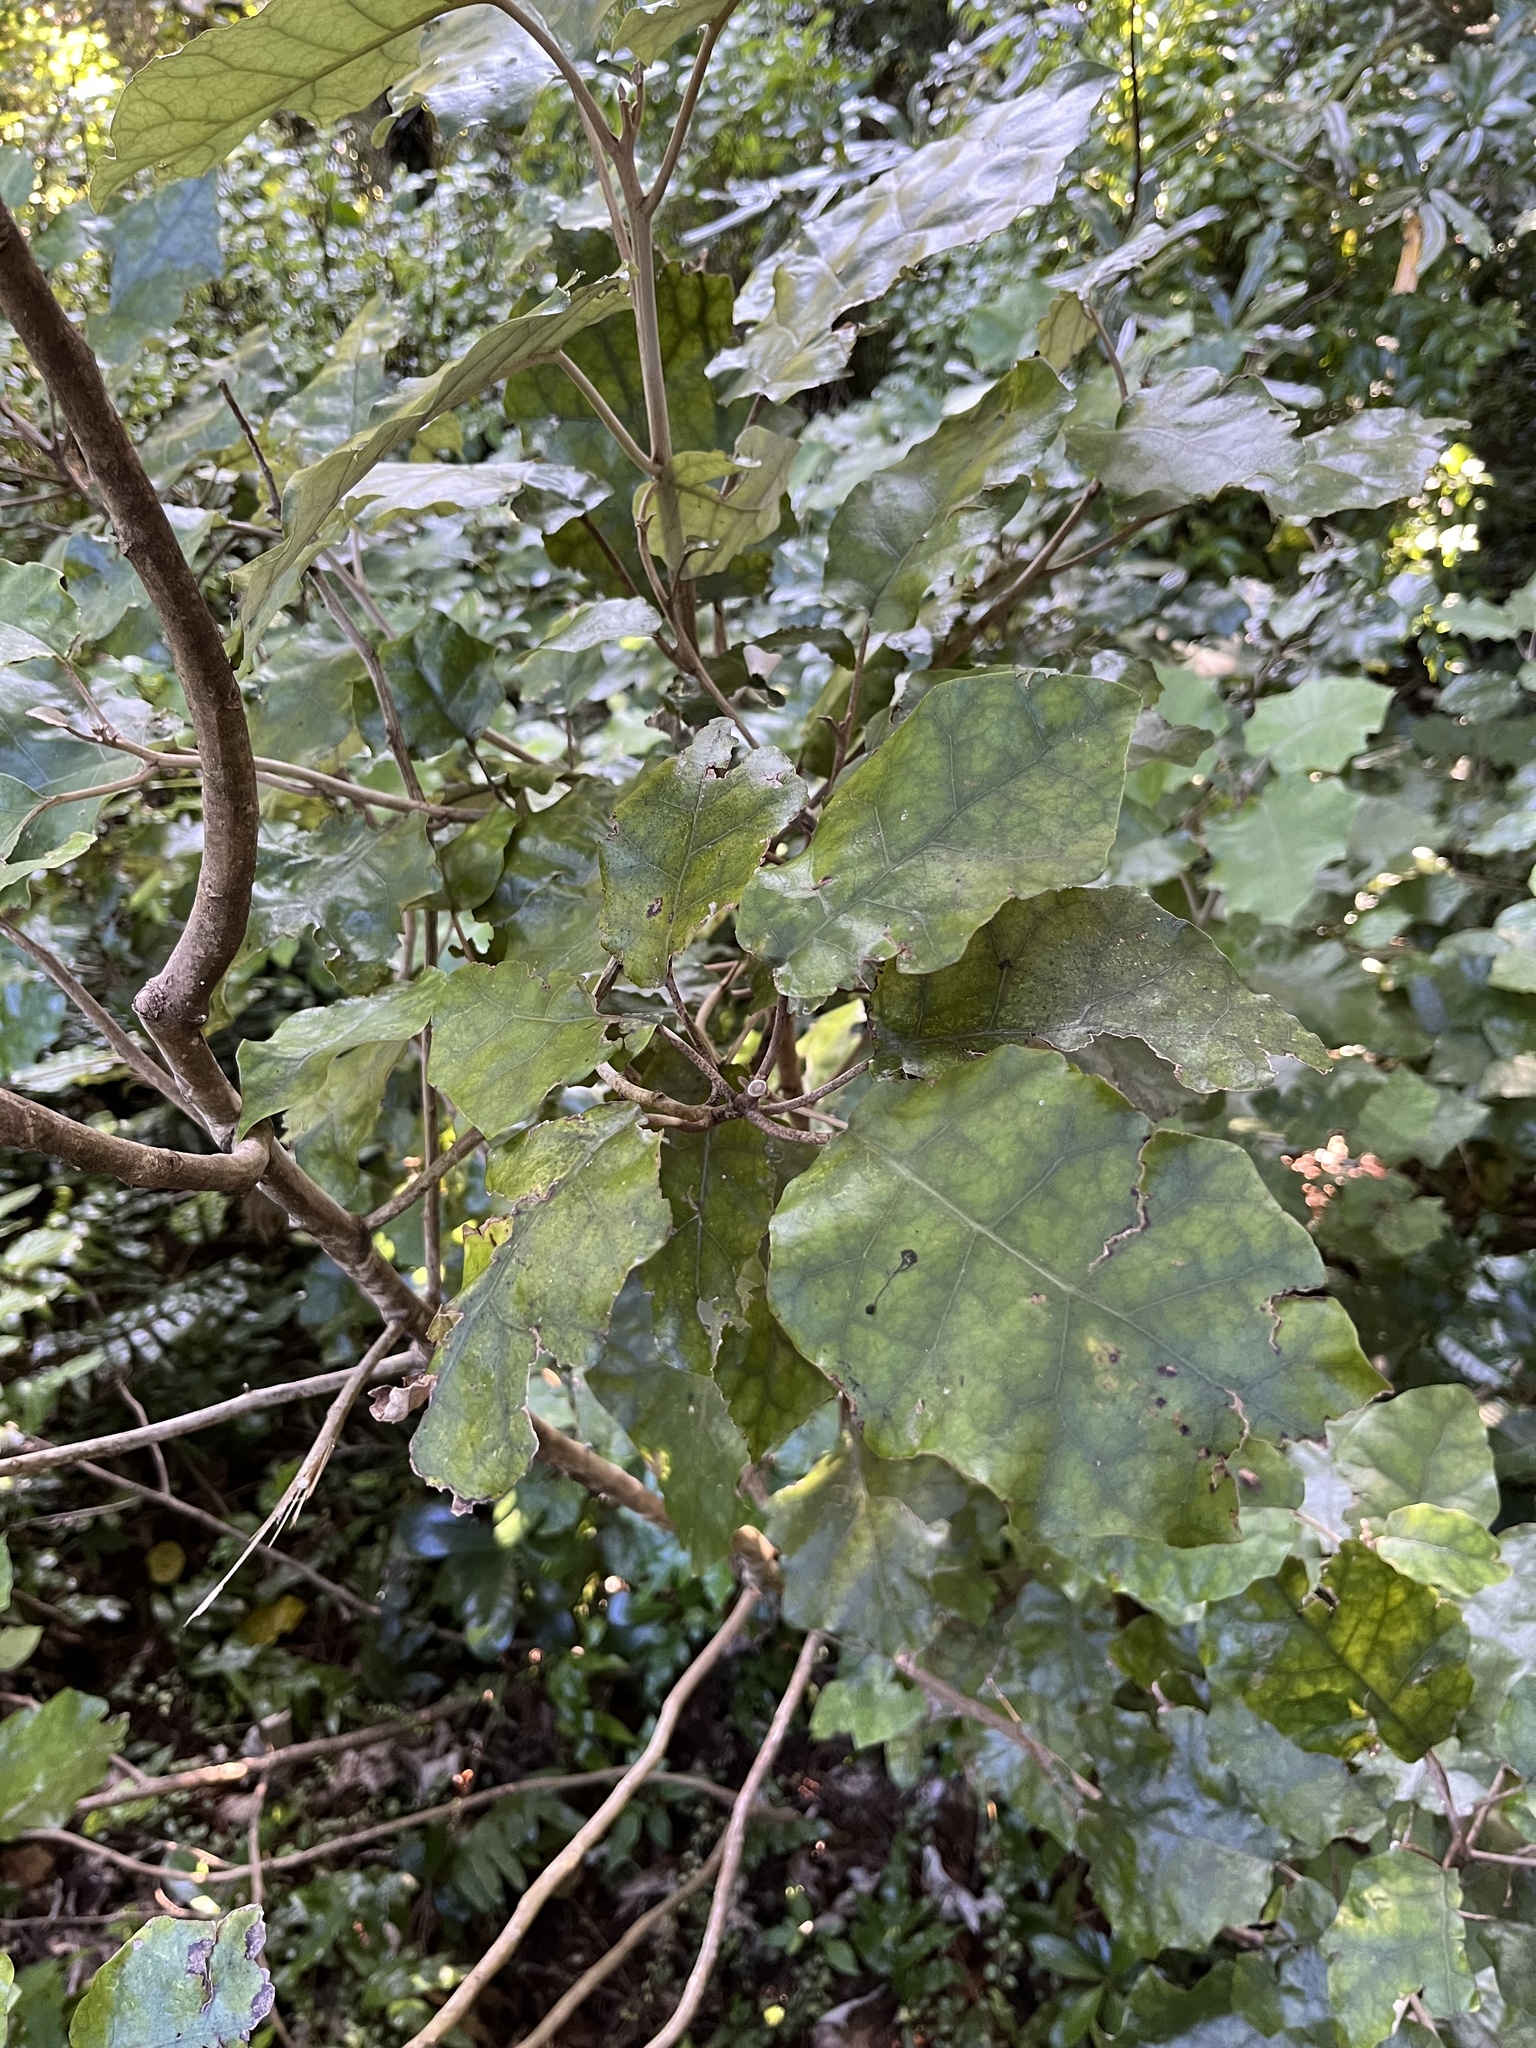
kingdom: Plantae
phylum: Tracheophyta
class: Magnoliopsida
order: Asterales
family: Asteraceae
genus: Brachyglottis
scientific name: Brachyglottis repanda
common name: Hedge ragwort
